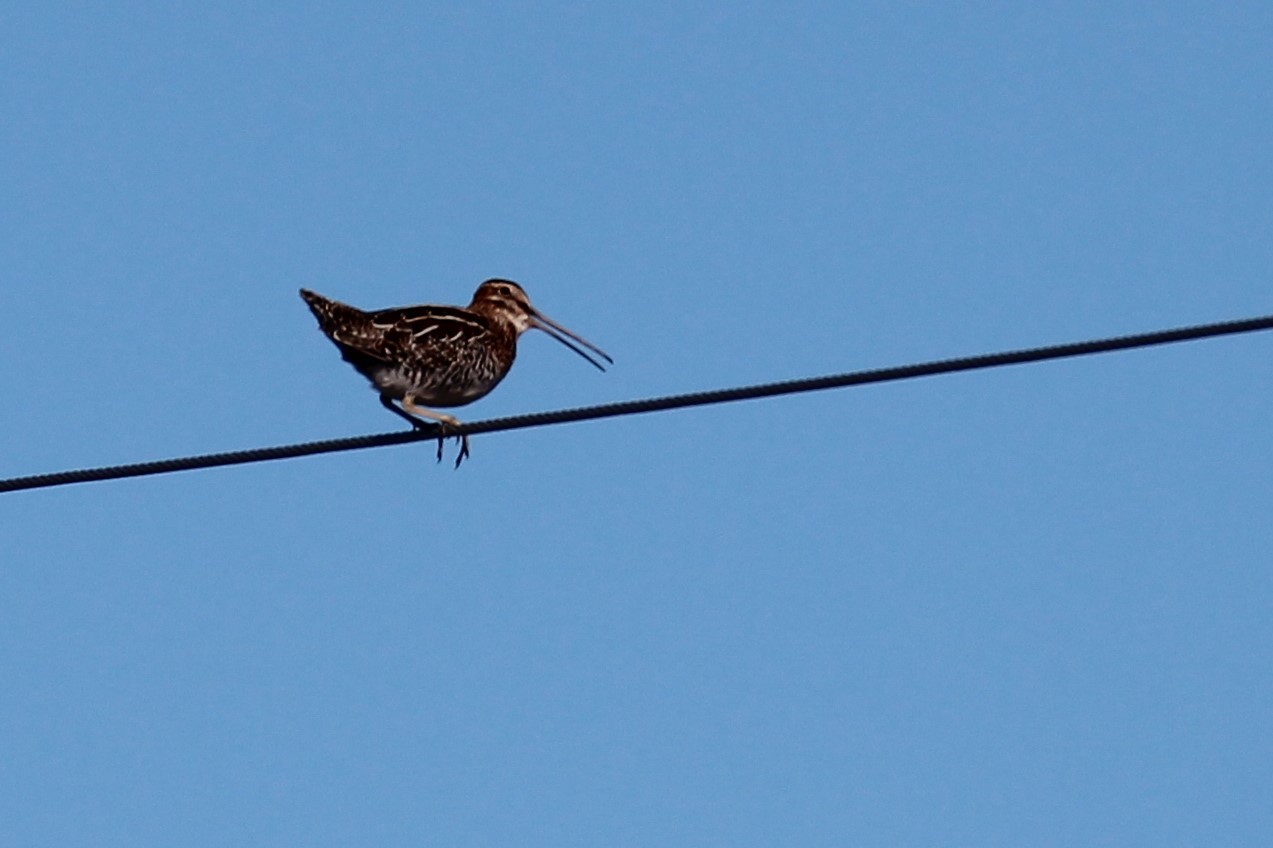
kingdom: Animalia
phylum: Chordata
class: Aves
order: Charadriiformes
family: Scolopacidae
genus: Gallinago
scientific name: Gallinago delicata
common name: Wilson's snipe
